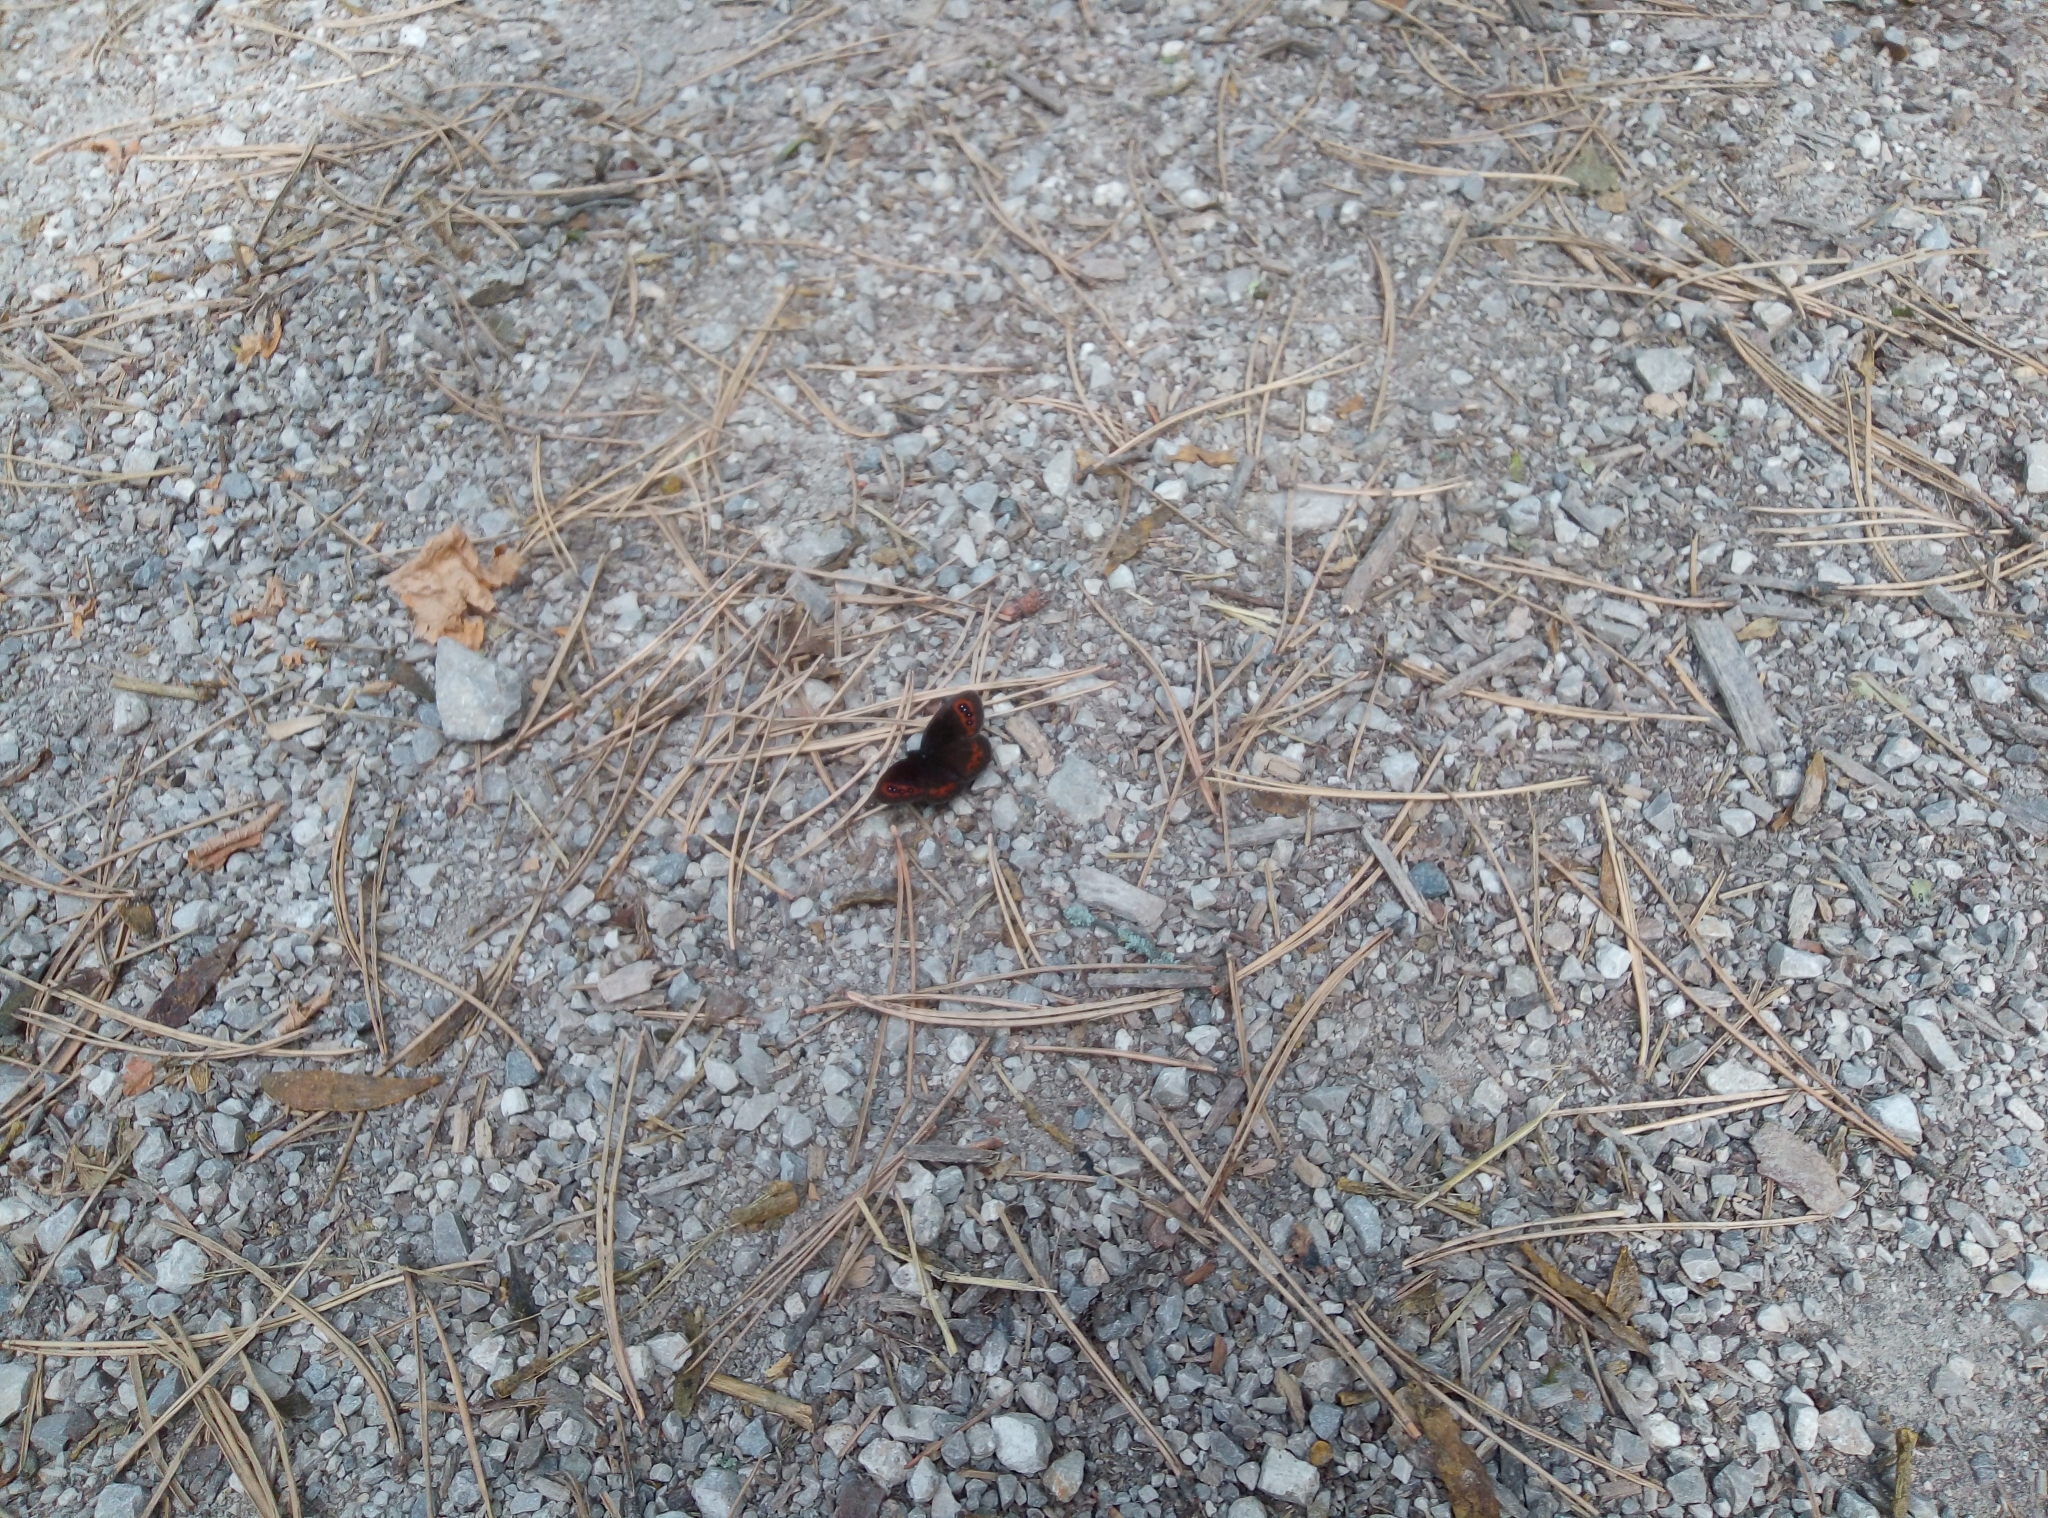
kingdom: Animalia
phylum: Arthropoda
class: Insecta
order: Lepidoptera
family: Nymphalidae
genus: Erebia
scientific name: Erebia aethiops
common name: Scotch argus
